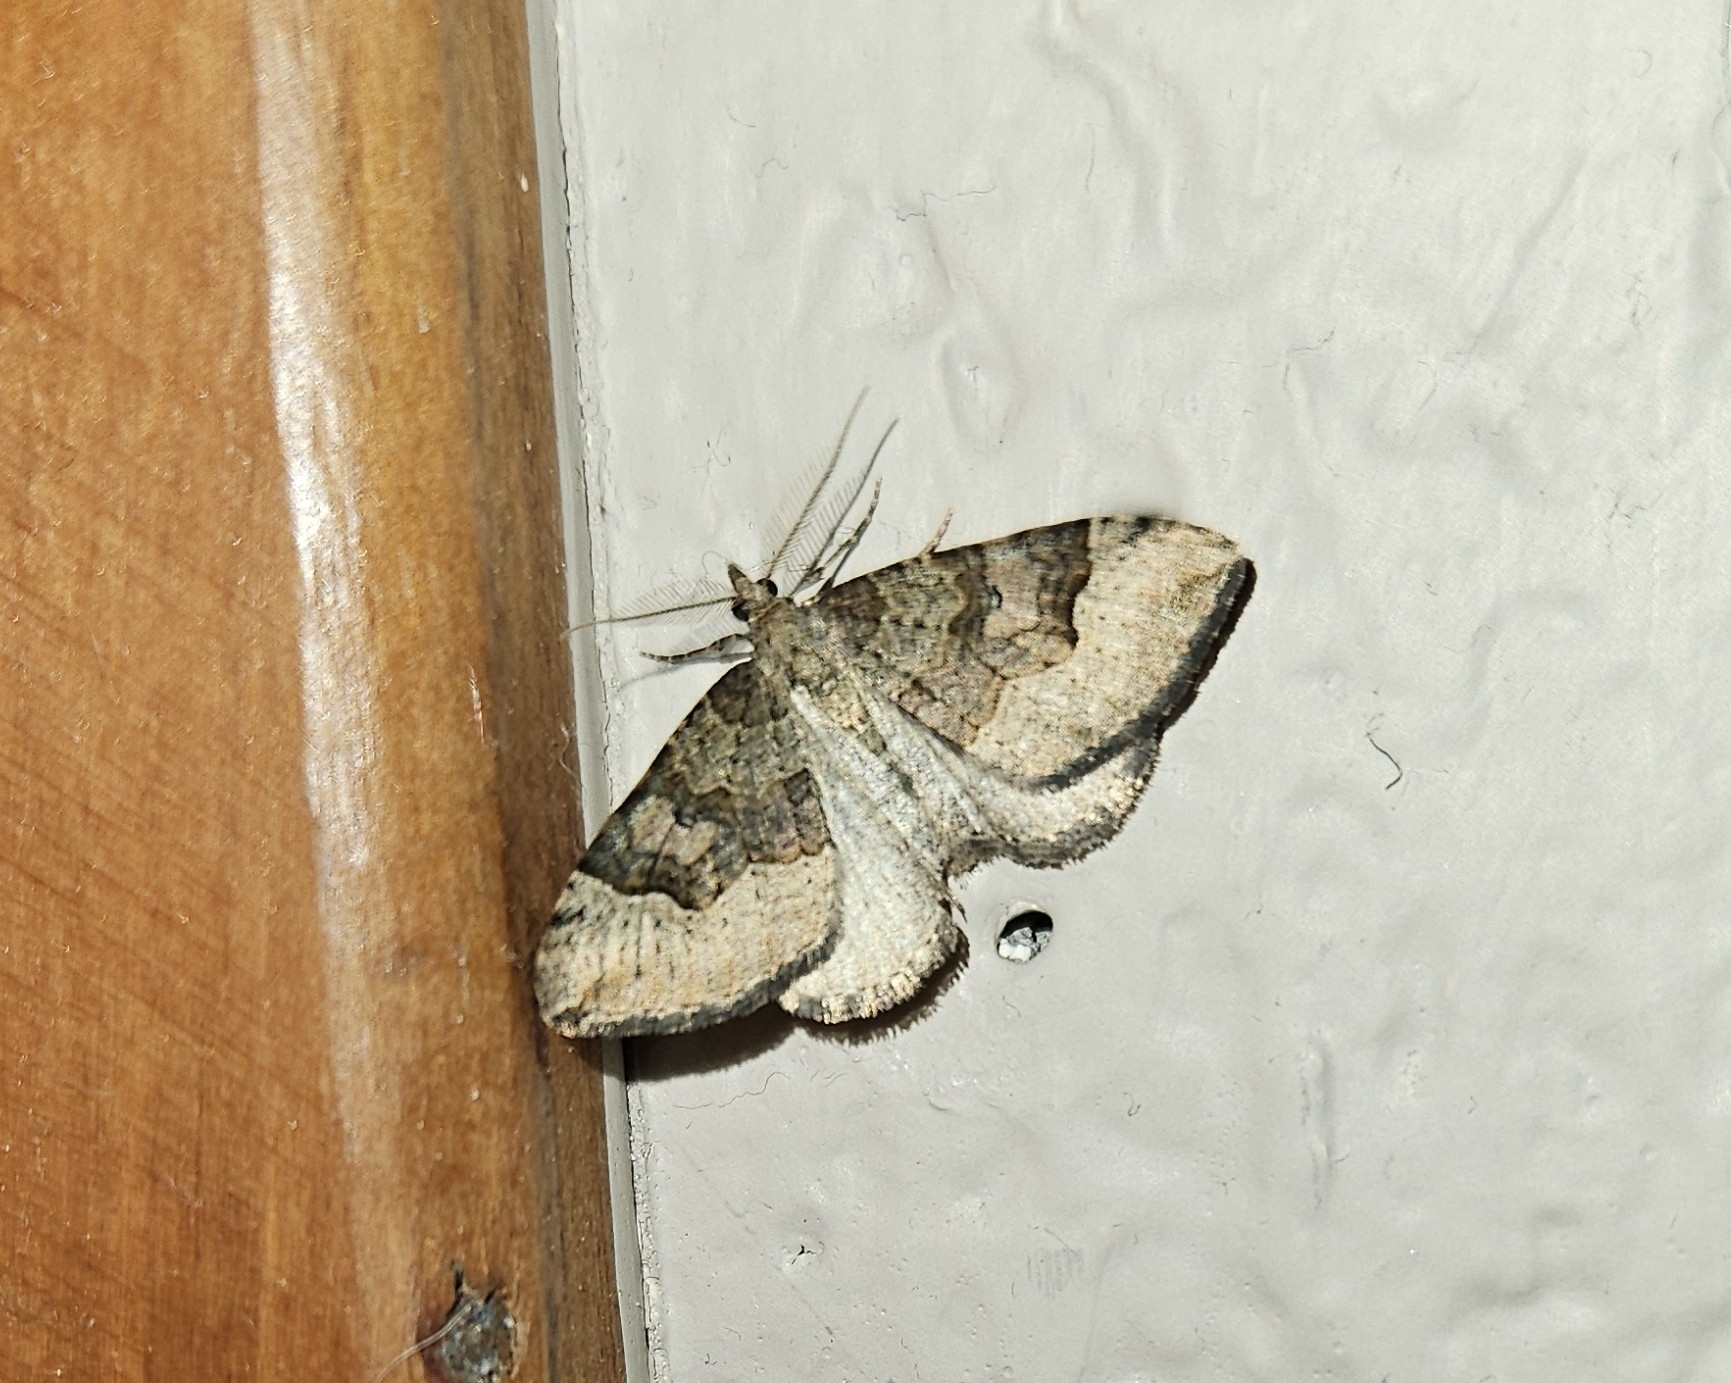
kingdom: Animalia
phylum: Arthropoda
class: Insecta
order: Lepidoptera
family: Geometridae
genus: Epyaxa
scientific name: Epyaxa rosearia
